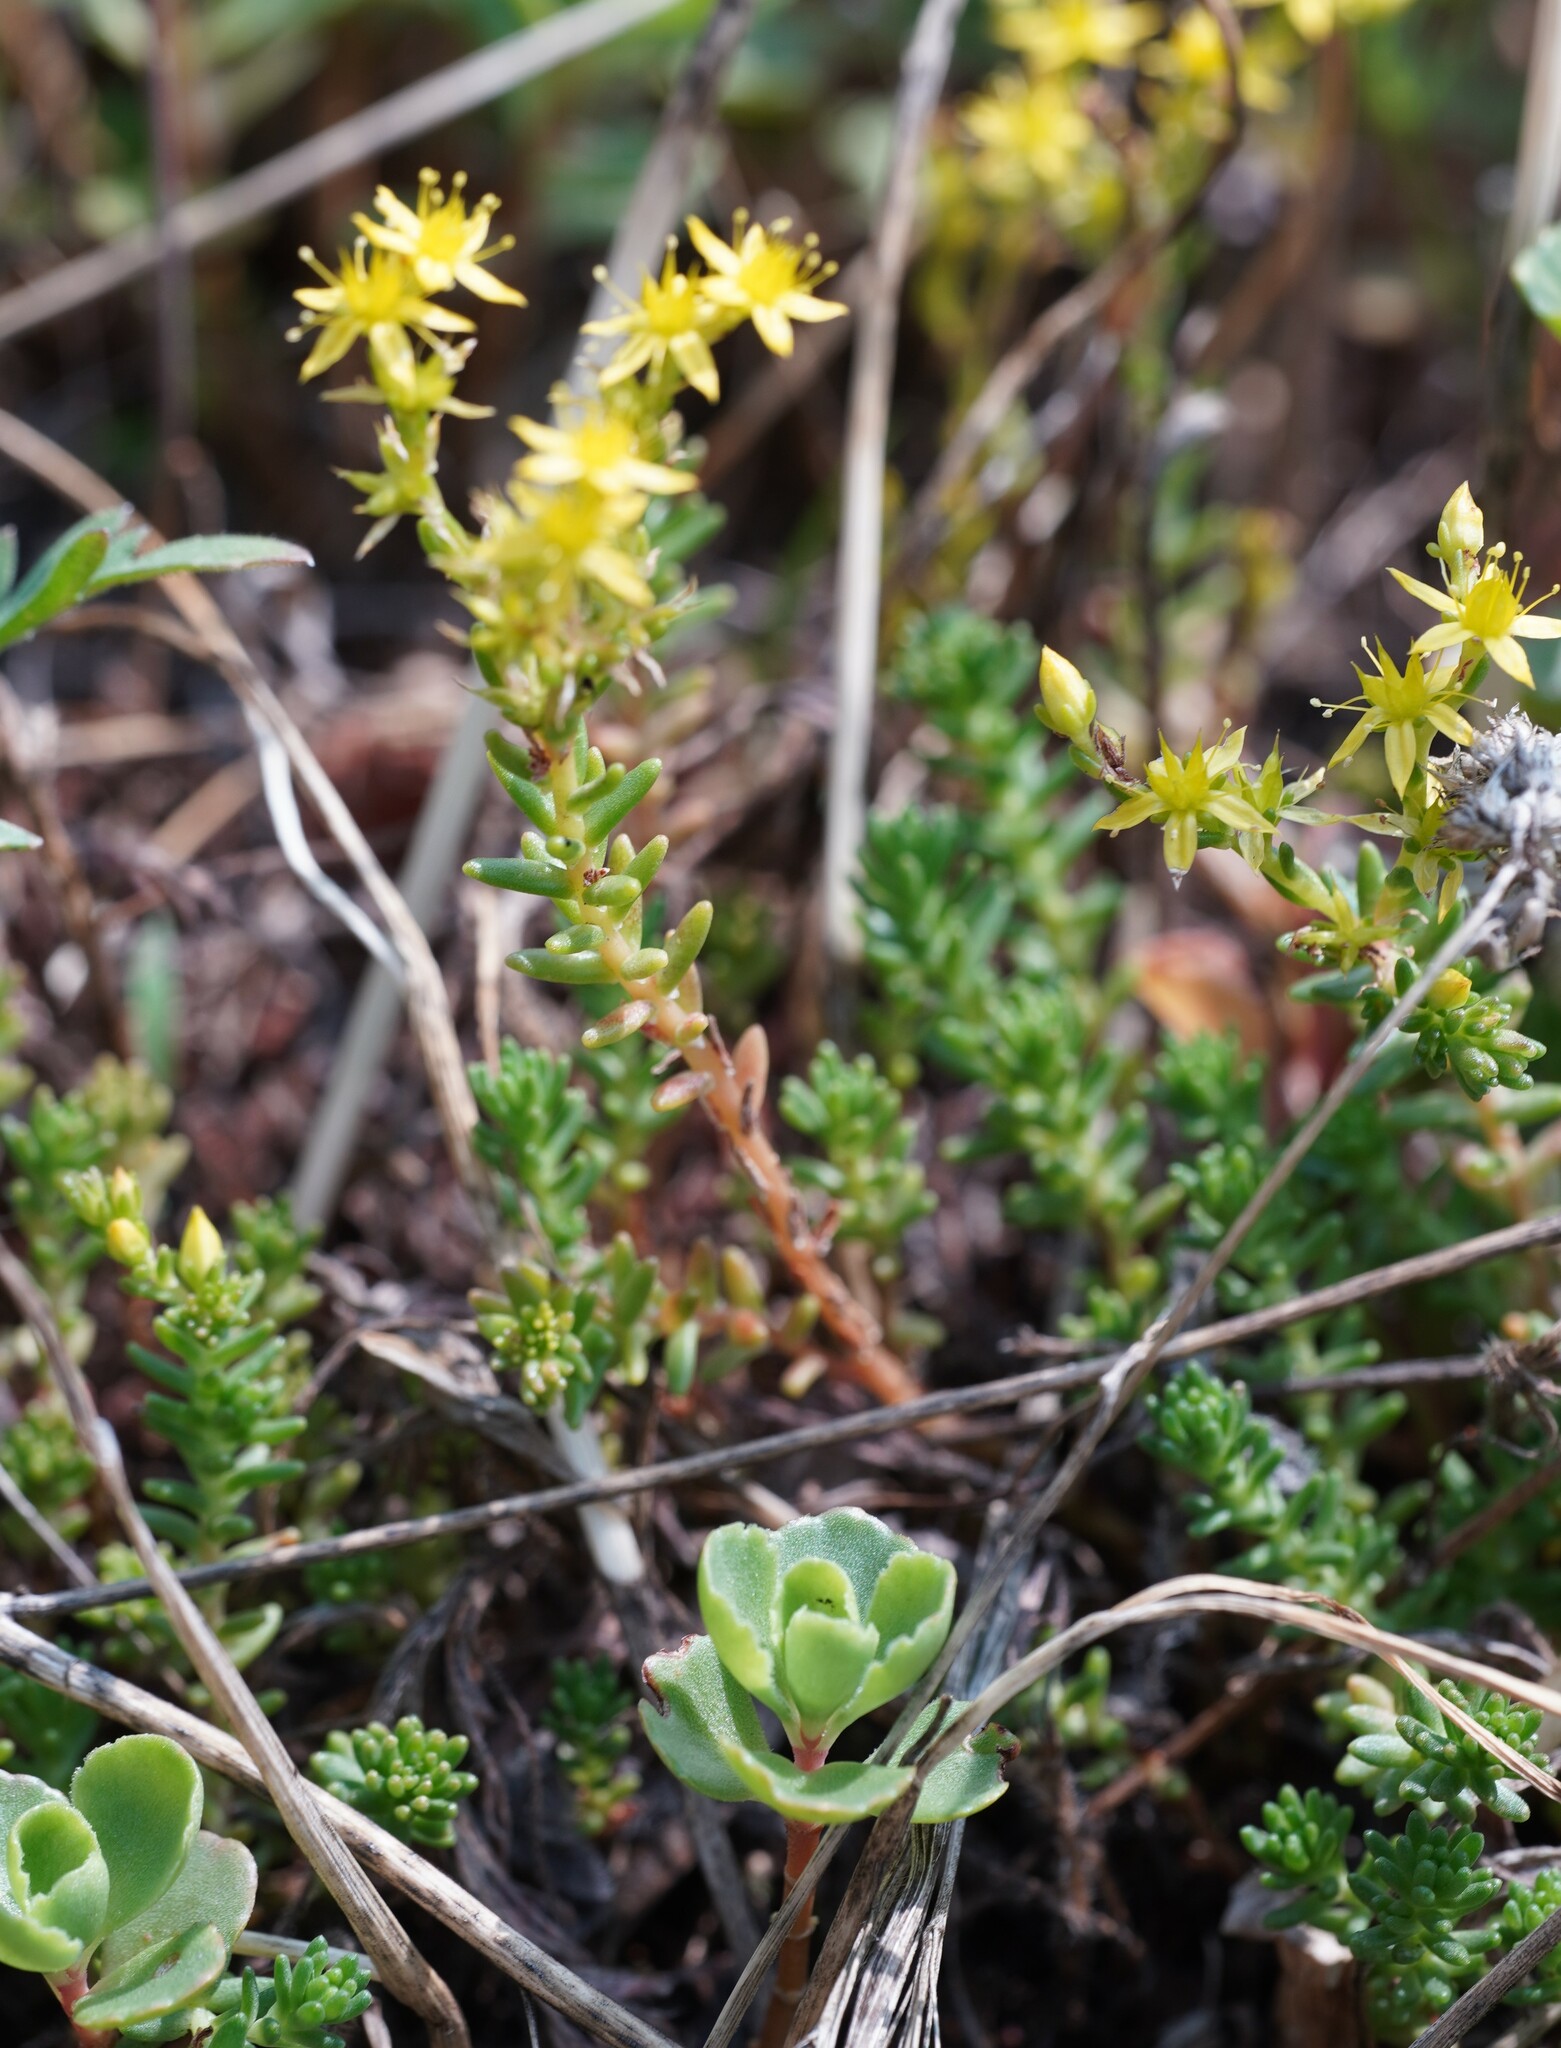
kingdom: Plantae
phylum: Tracheophyta
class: Magnoliopsida
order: Saxifragales
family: Crassulaceae
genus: Sedum
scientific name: Sedum sexangulare
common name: Tasteless stonecrop
